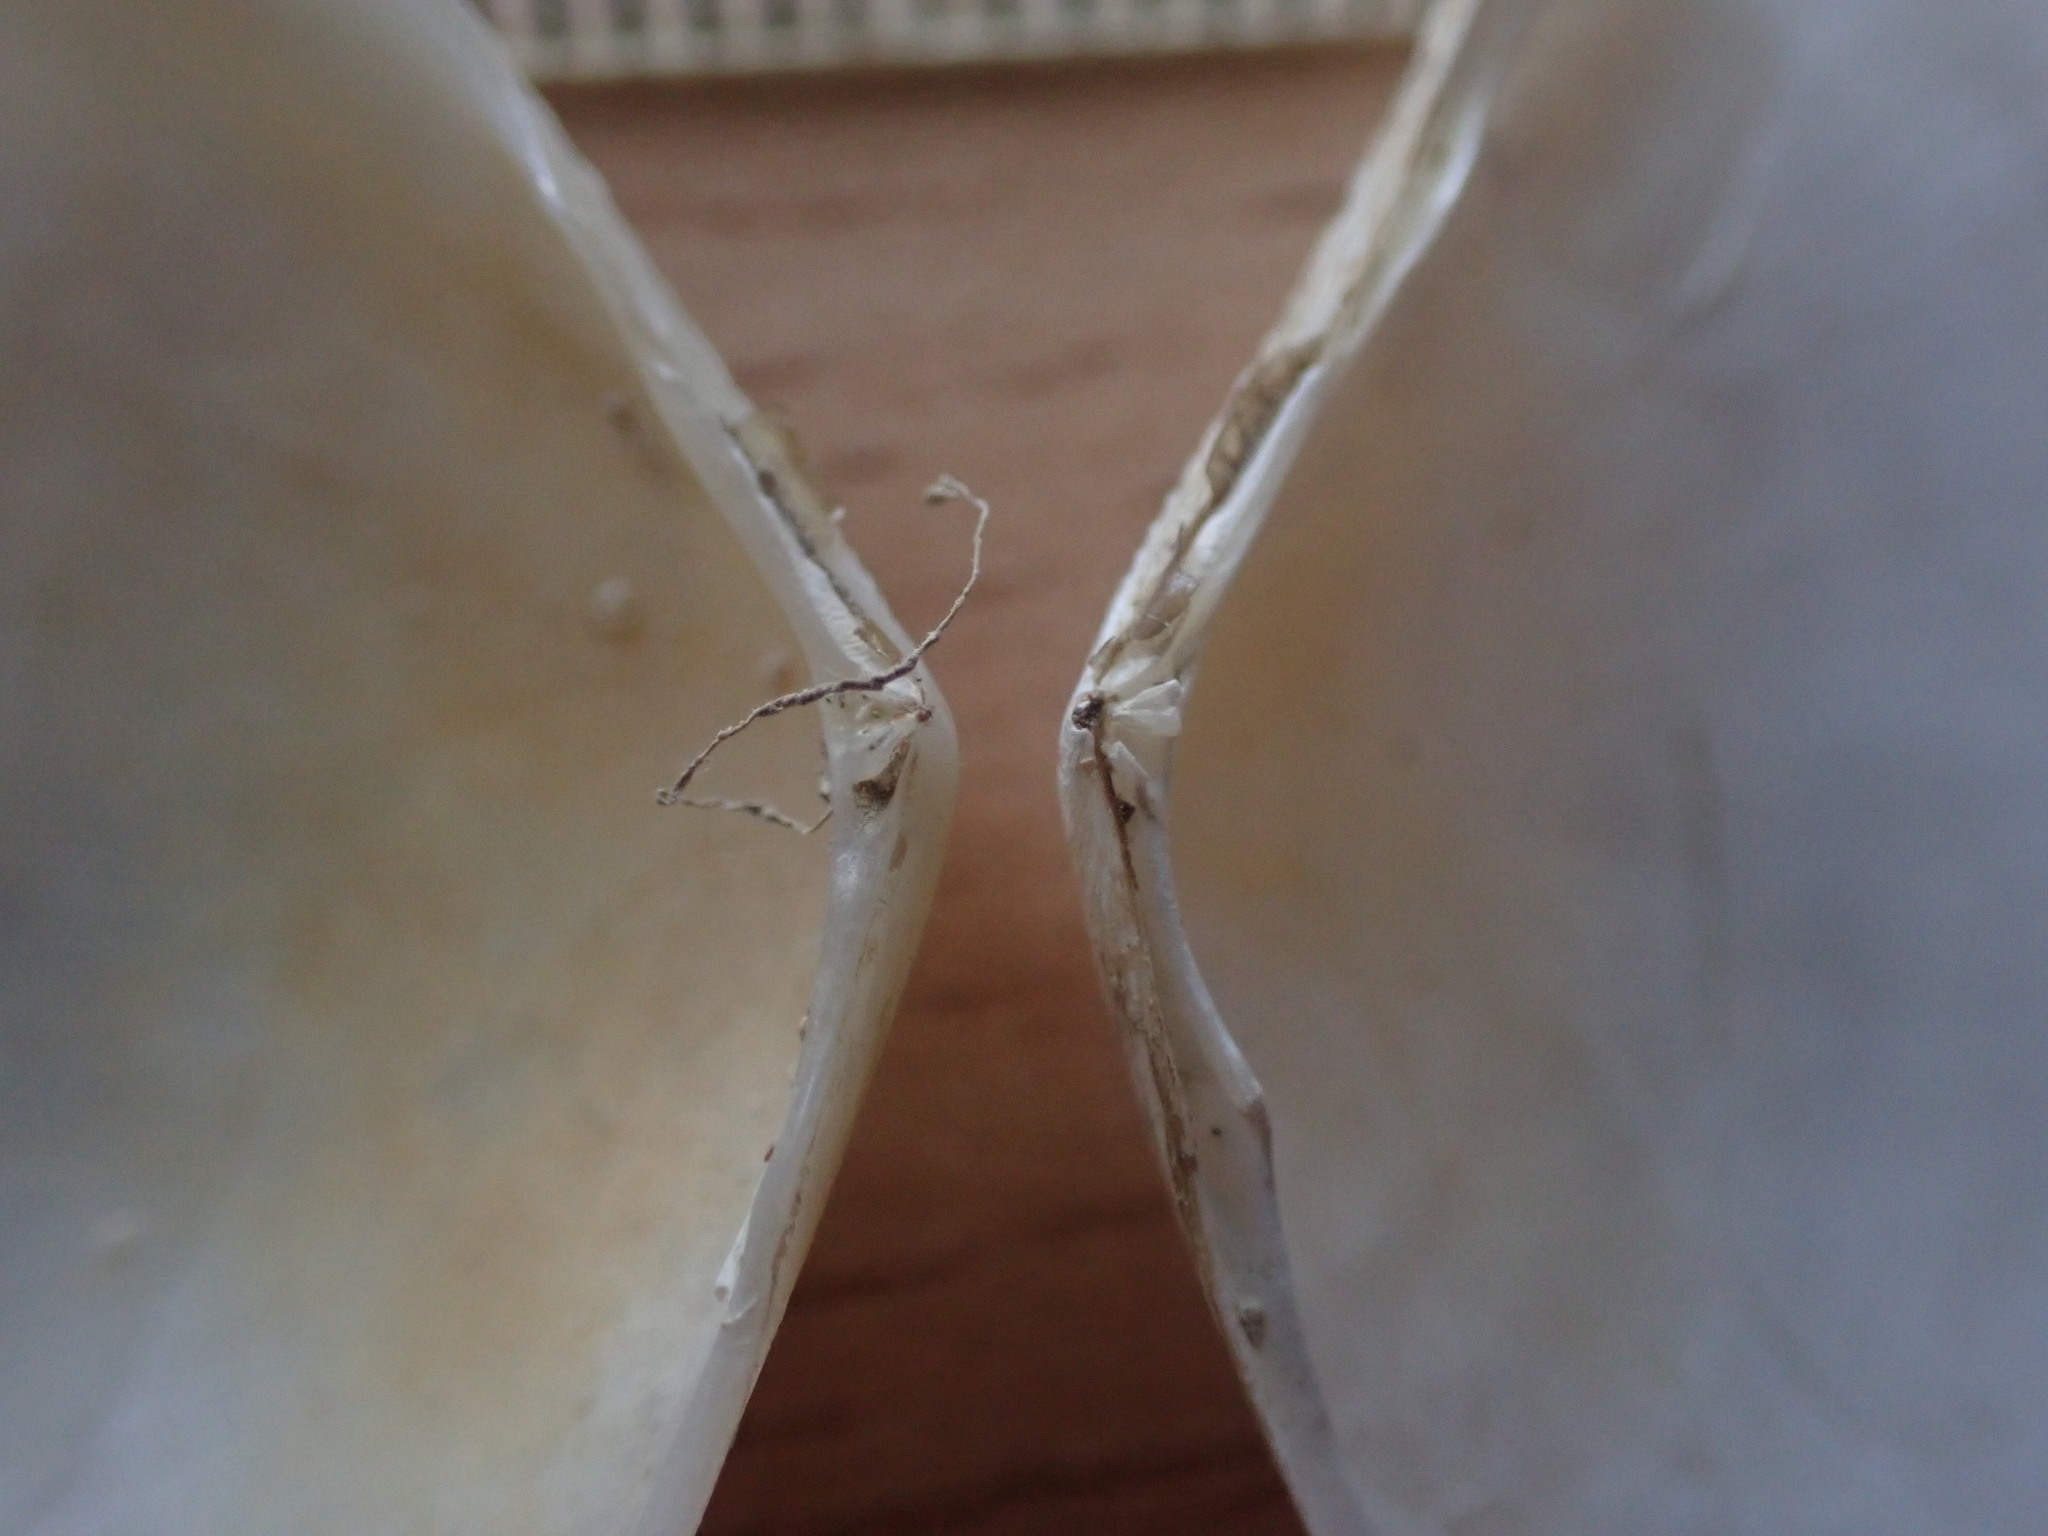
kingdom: Animalia
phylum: Mollusca
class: Bivalvia
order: Cardiida
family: Tellinidae
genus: Serratina
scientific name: Serratina charlottae
